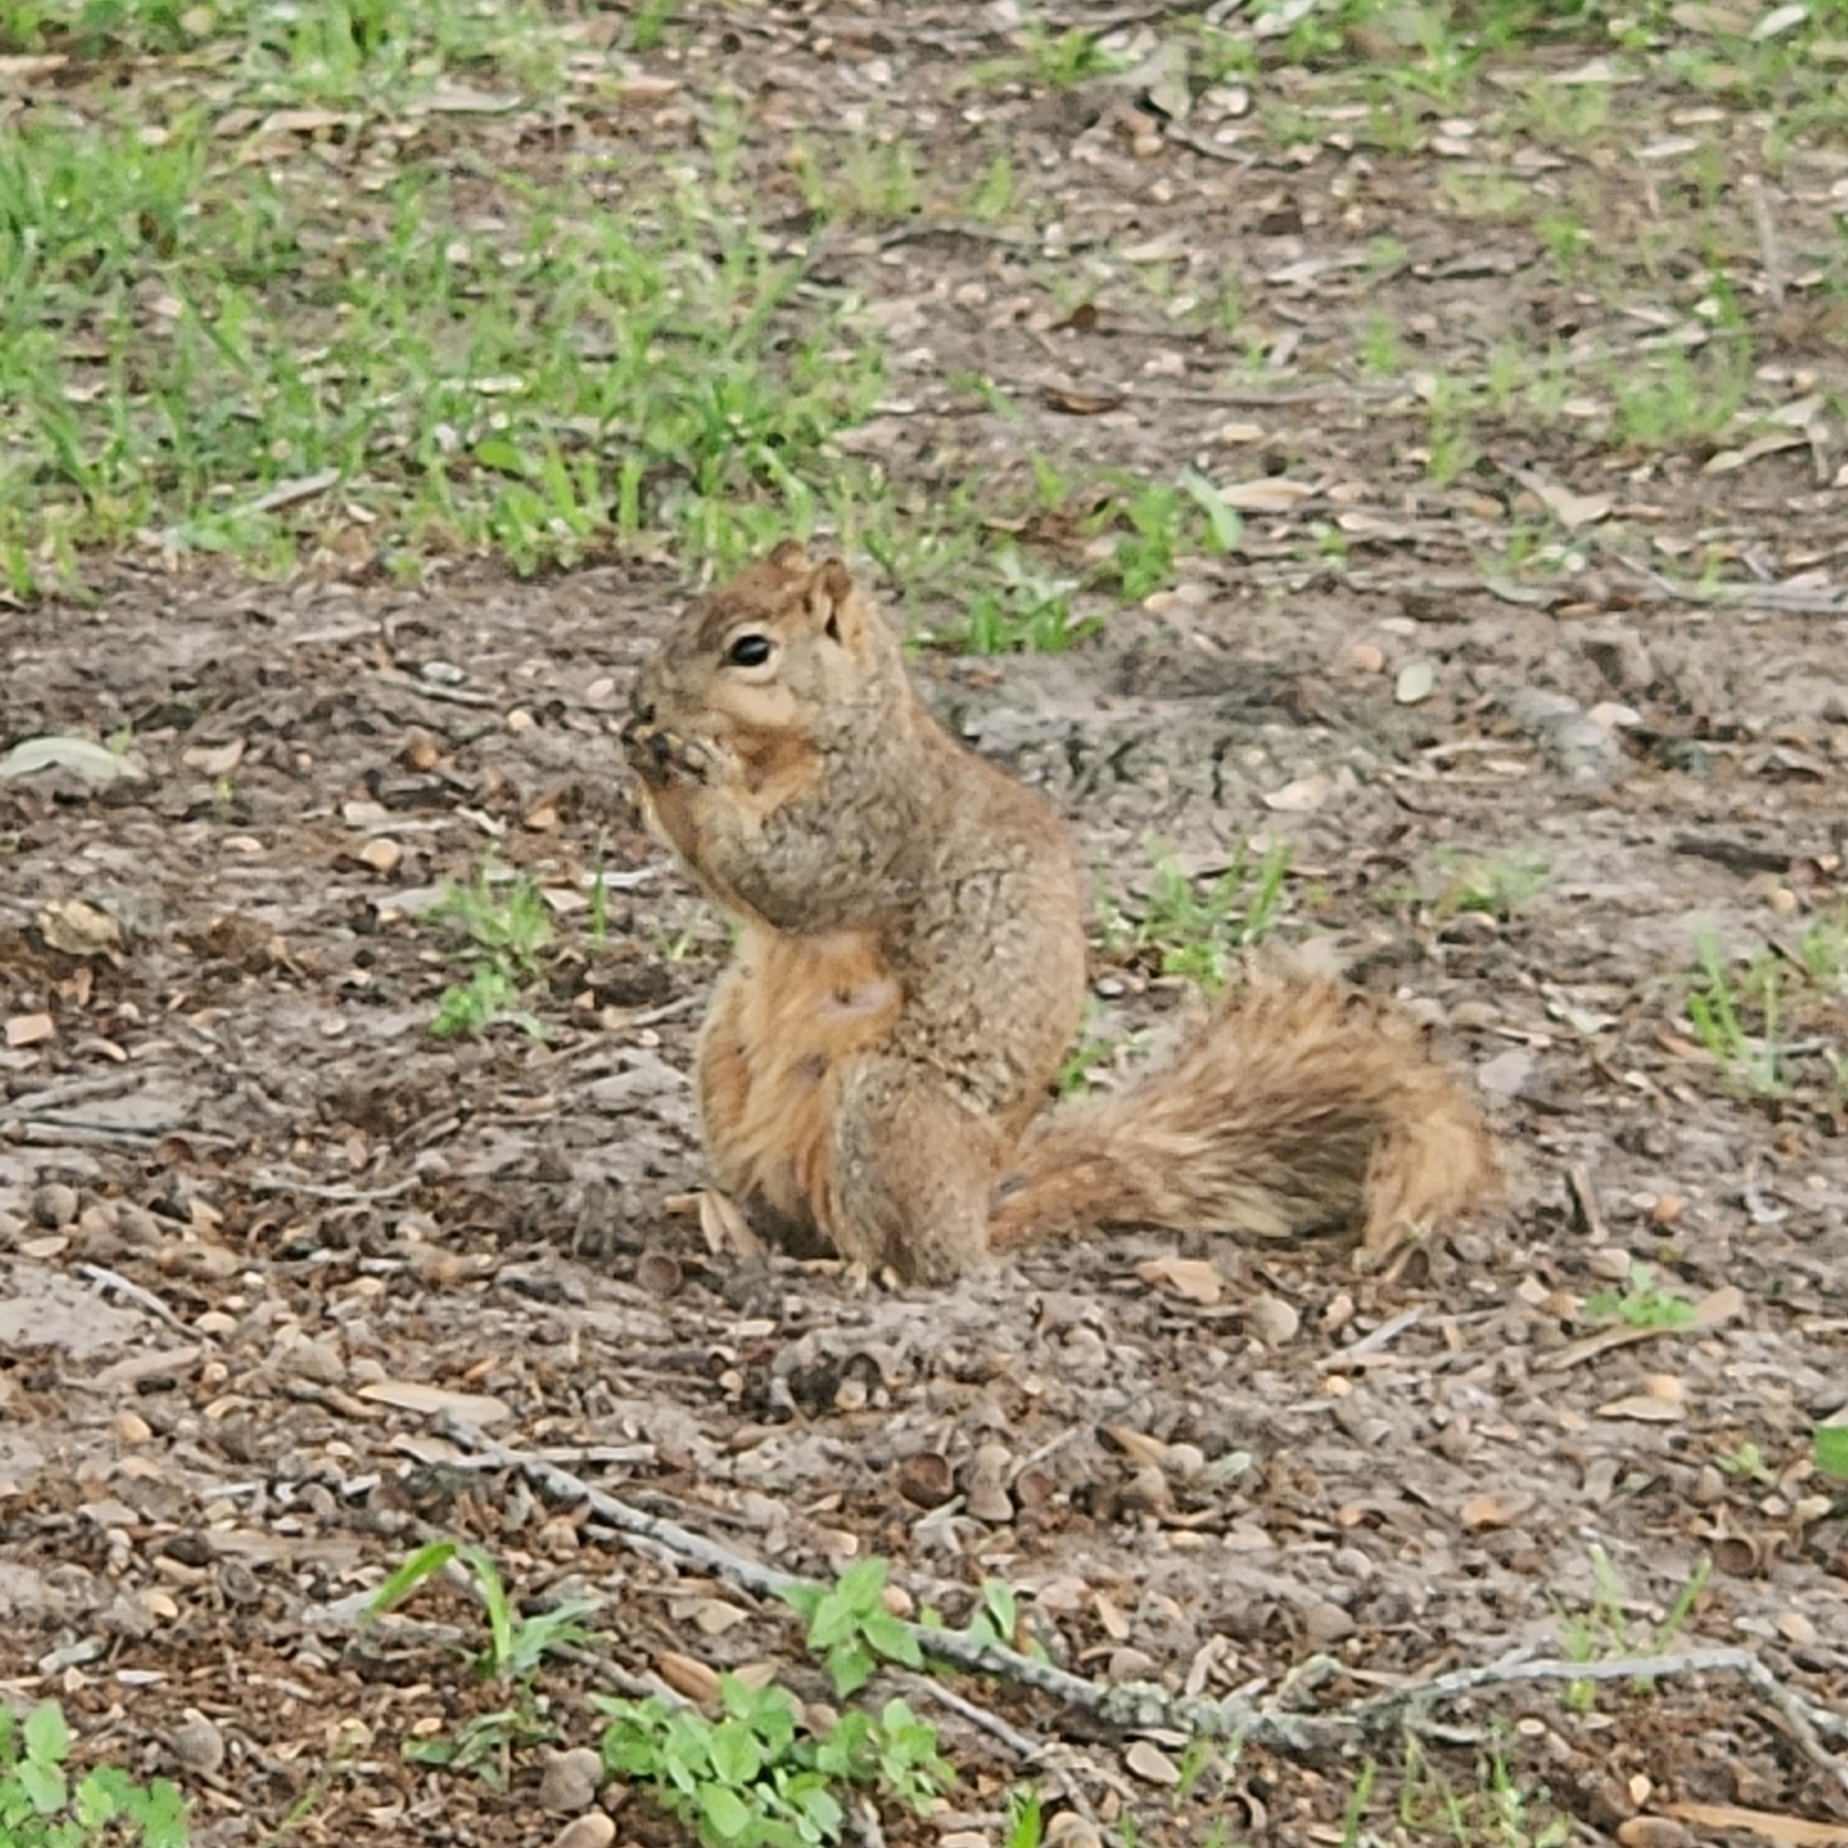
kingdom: Animalia
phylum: Chordata
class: Mammalia
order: Rodentia
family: Sciuridae
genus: Sciurus
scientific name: Sciurus niger
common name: Fox squirrel
